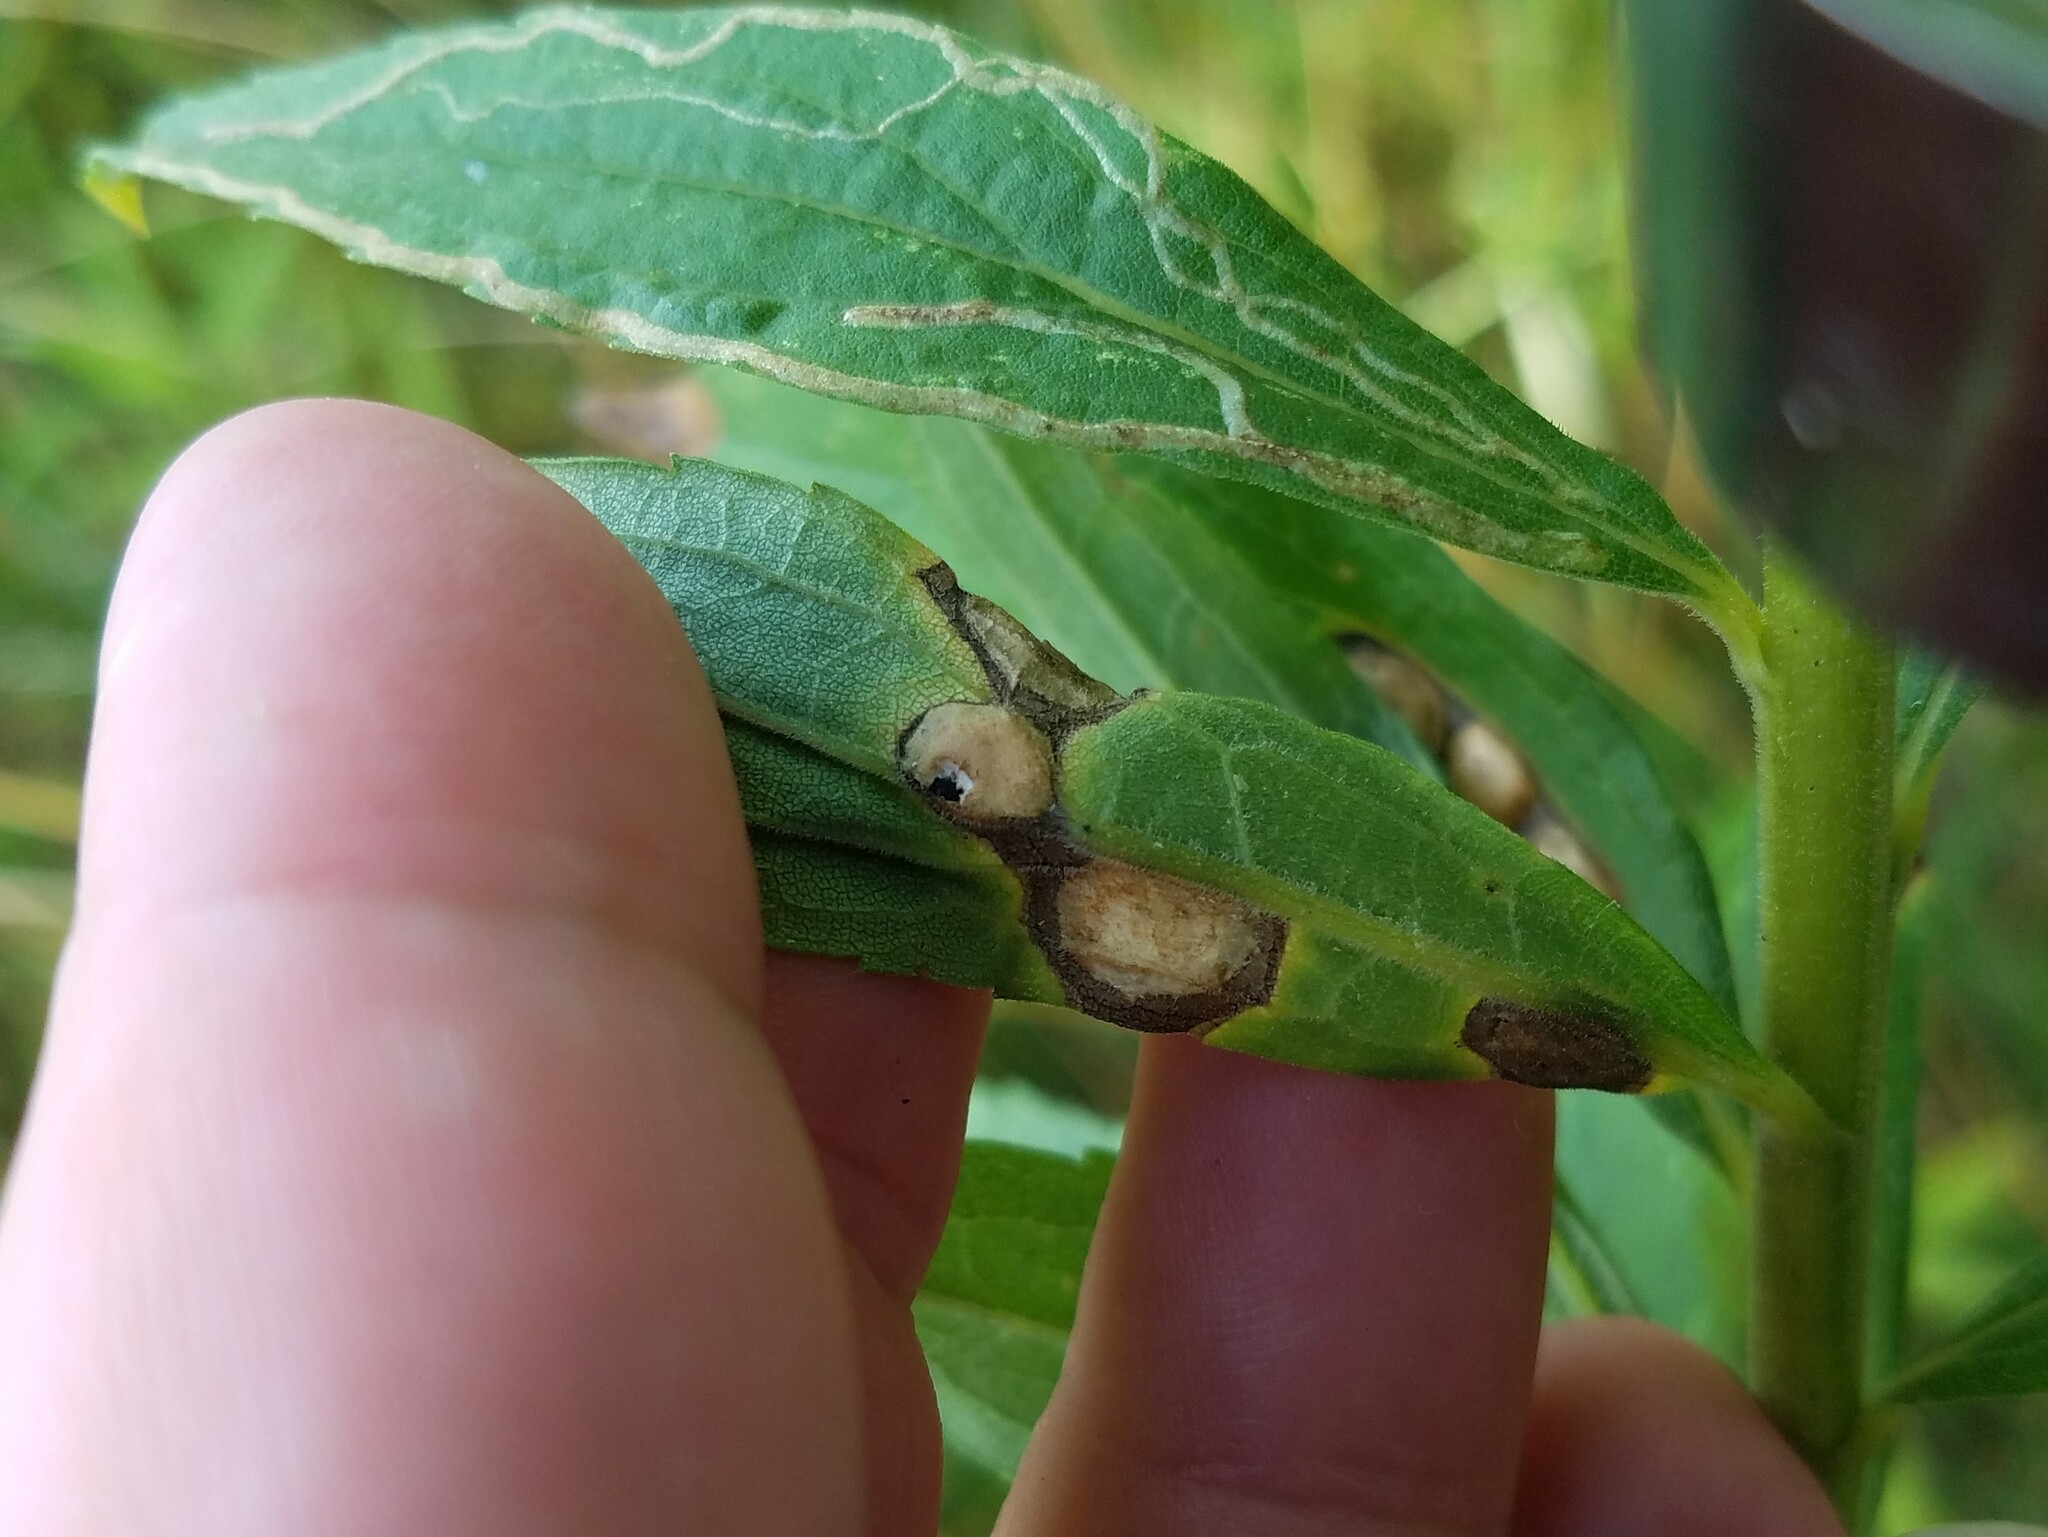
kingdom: Animalia
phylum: Arthropoda
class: Insecta
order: Diptera
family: Cecidomyiidae
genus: Asteromyia
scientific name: Asteromyia carbonifera
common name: Carbonifera goldenrod gall midge
